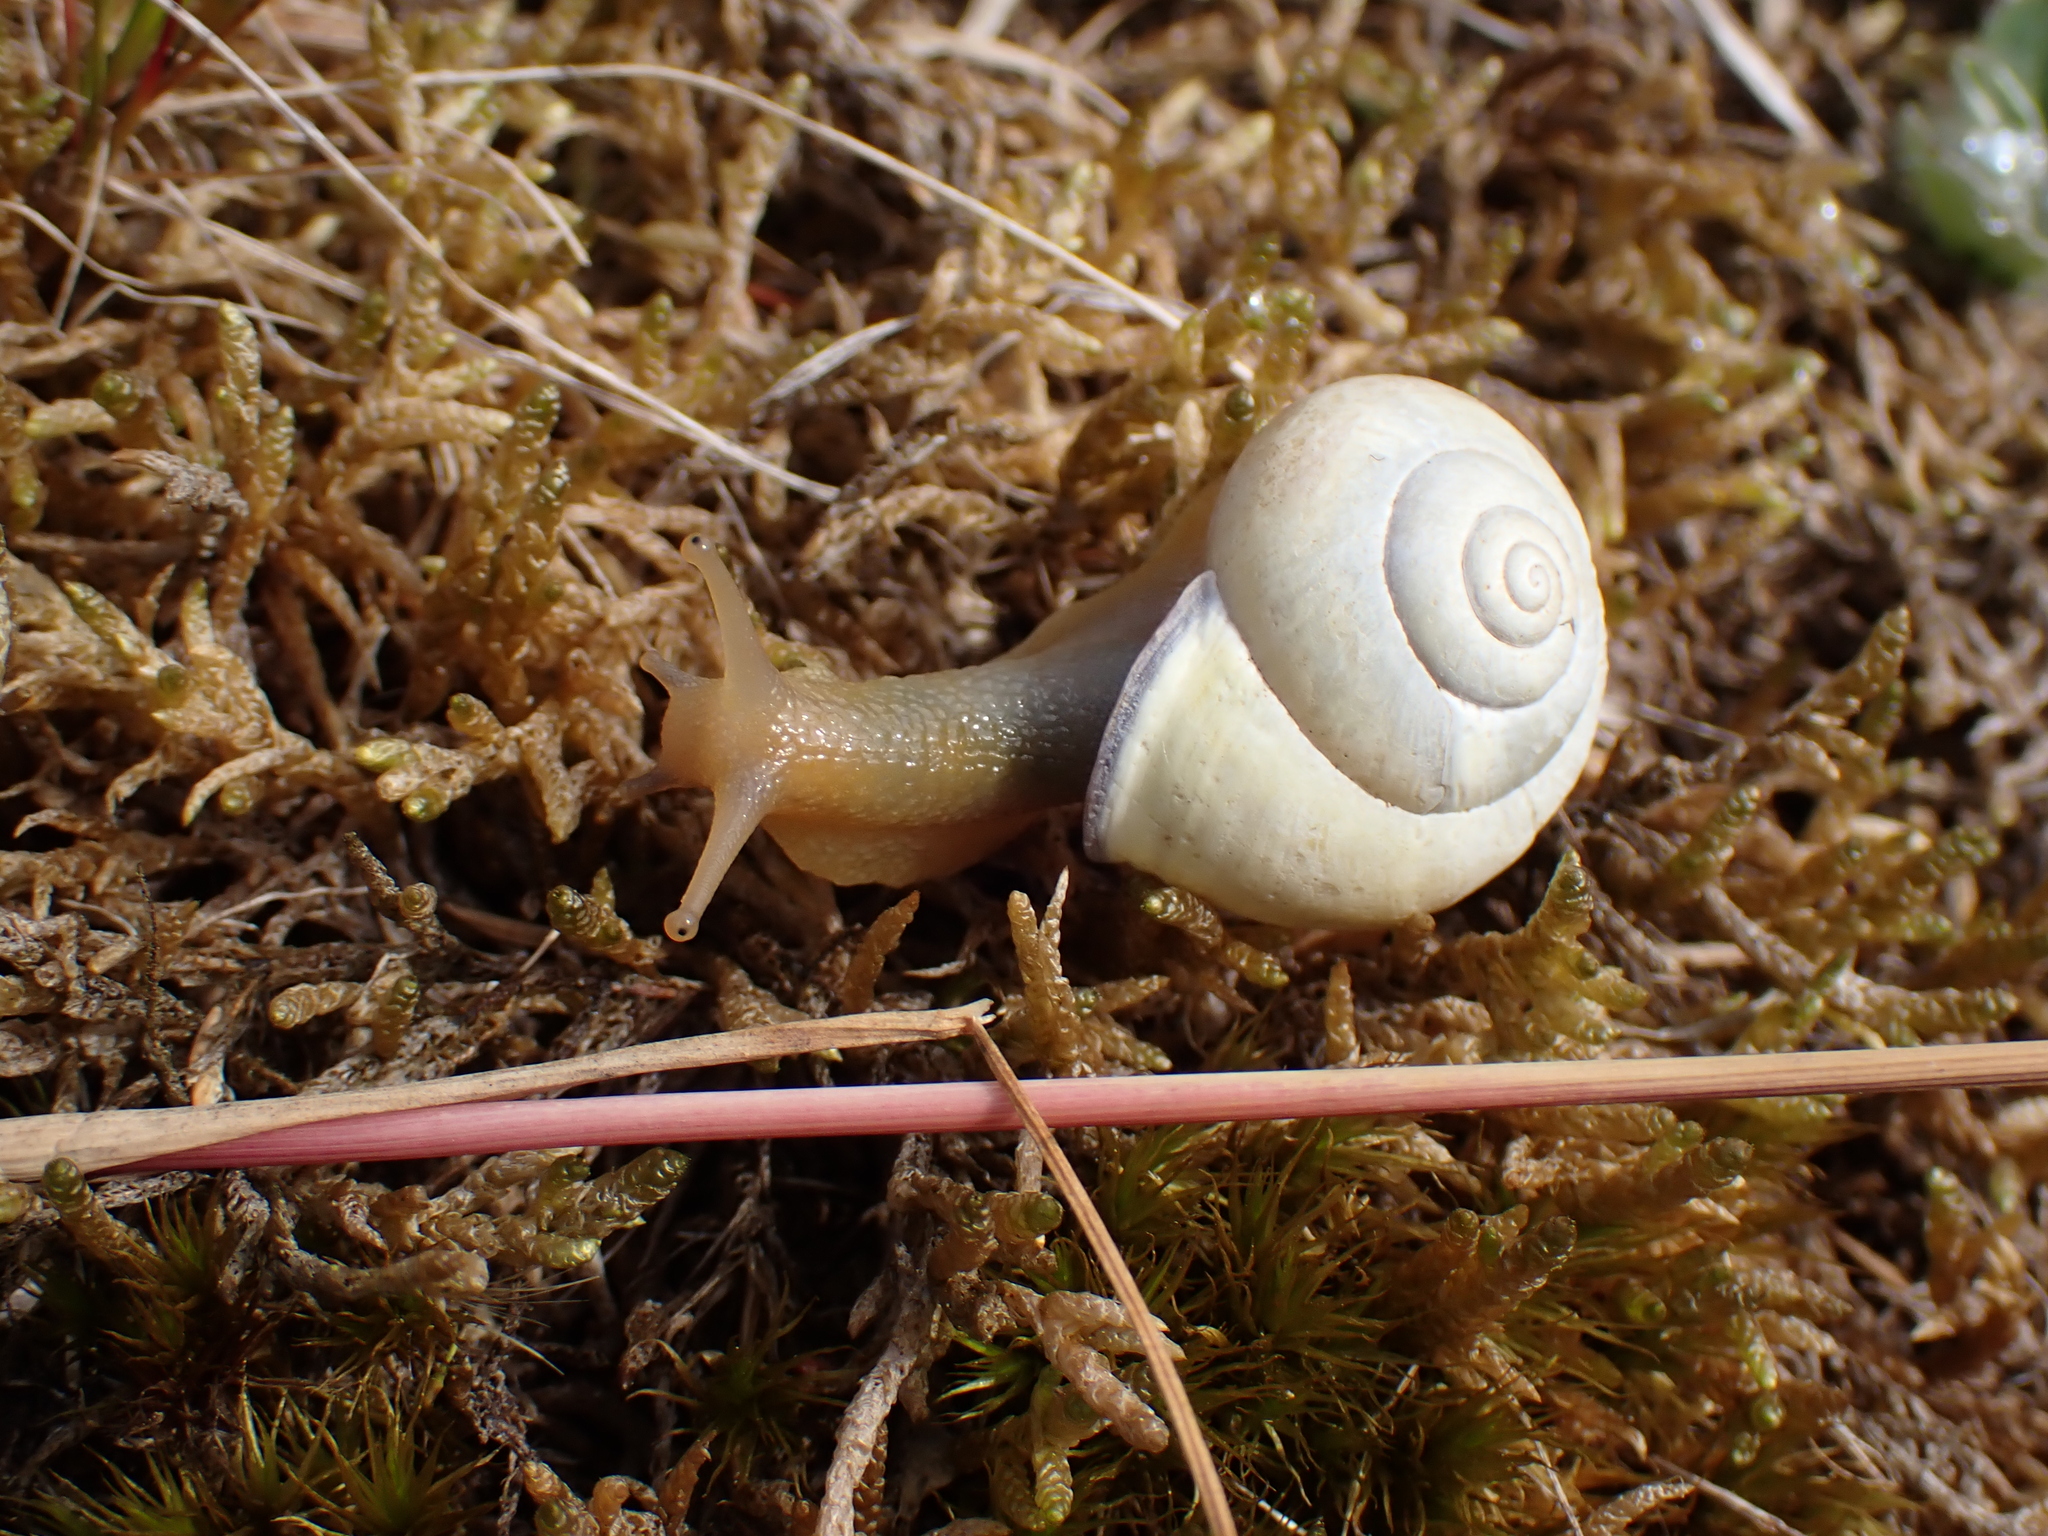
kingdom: Animalia
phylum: Mollusca
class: Gastropoda
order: Stylommatophora
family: Helicidae
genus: Cepaea
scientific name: Cepaea nemoralis
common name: Grovesnail
